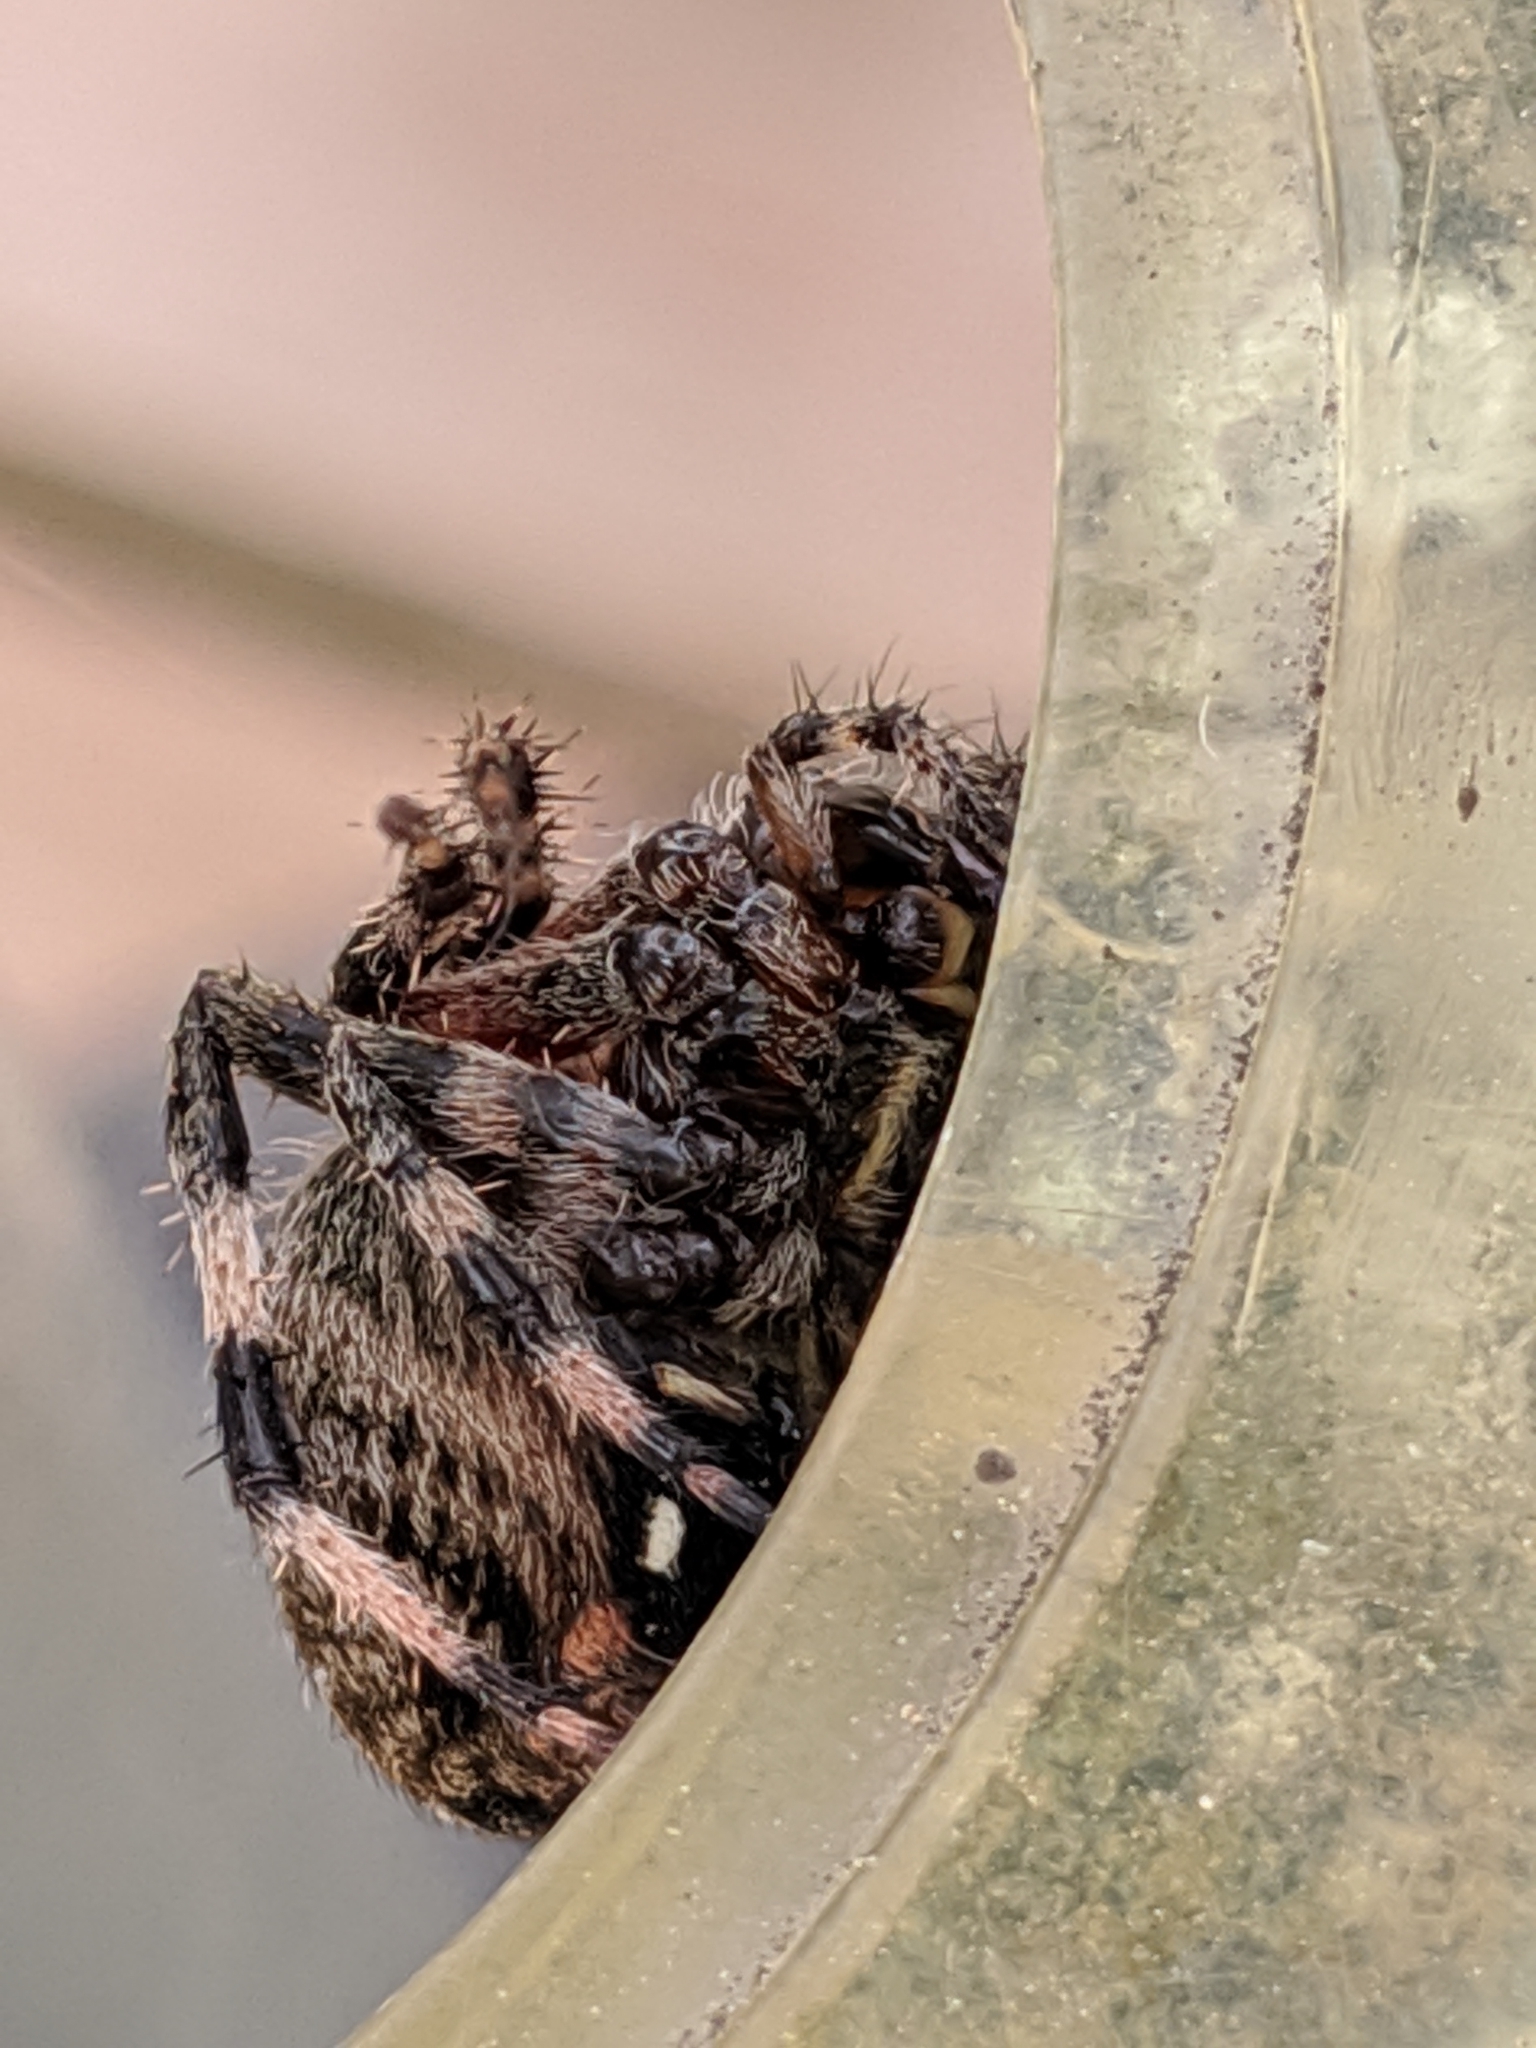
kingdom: Animalia
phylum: Arthropoda
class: Arachnida
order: Araneae
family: Araneidae
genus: Neoscona
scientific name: Neoscona crucifera
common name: Spotted orbweaver
